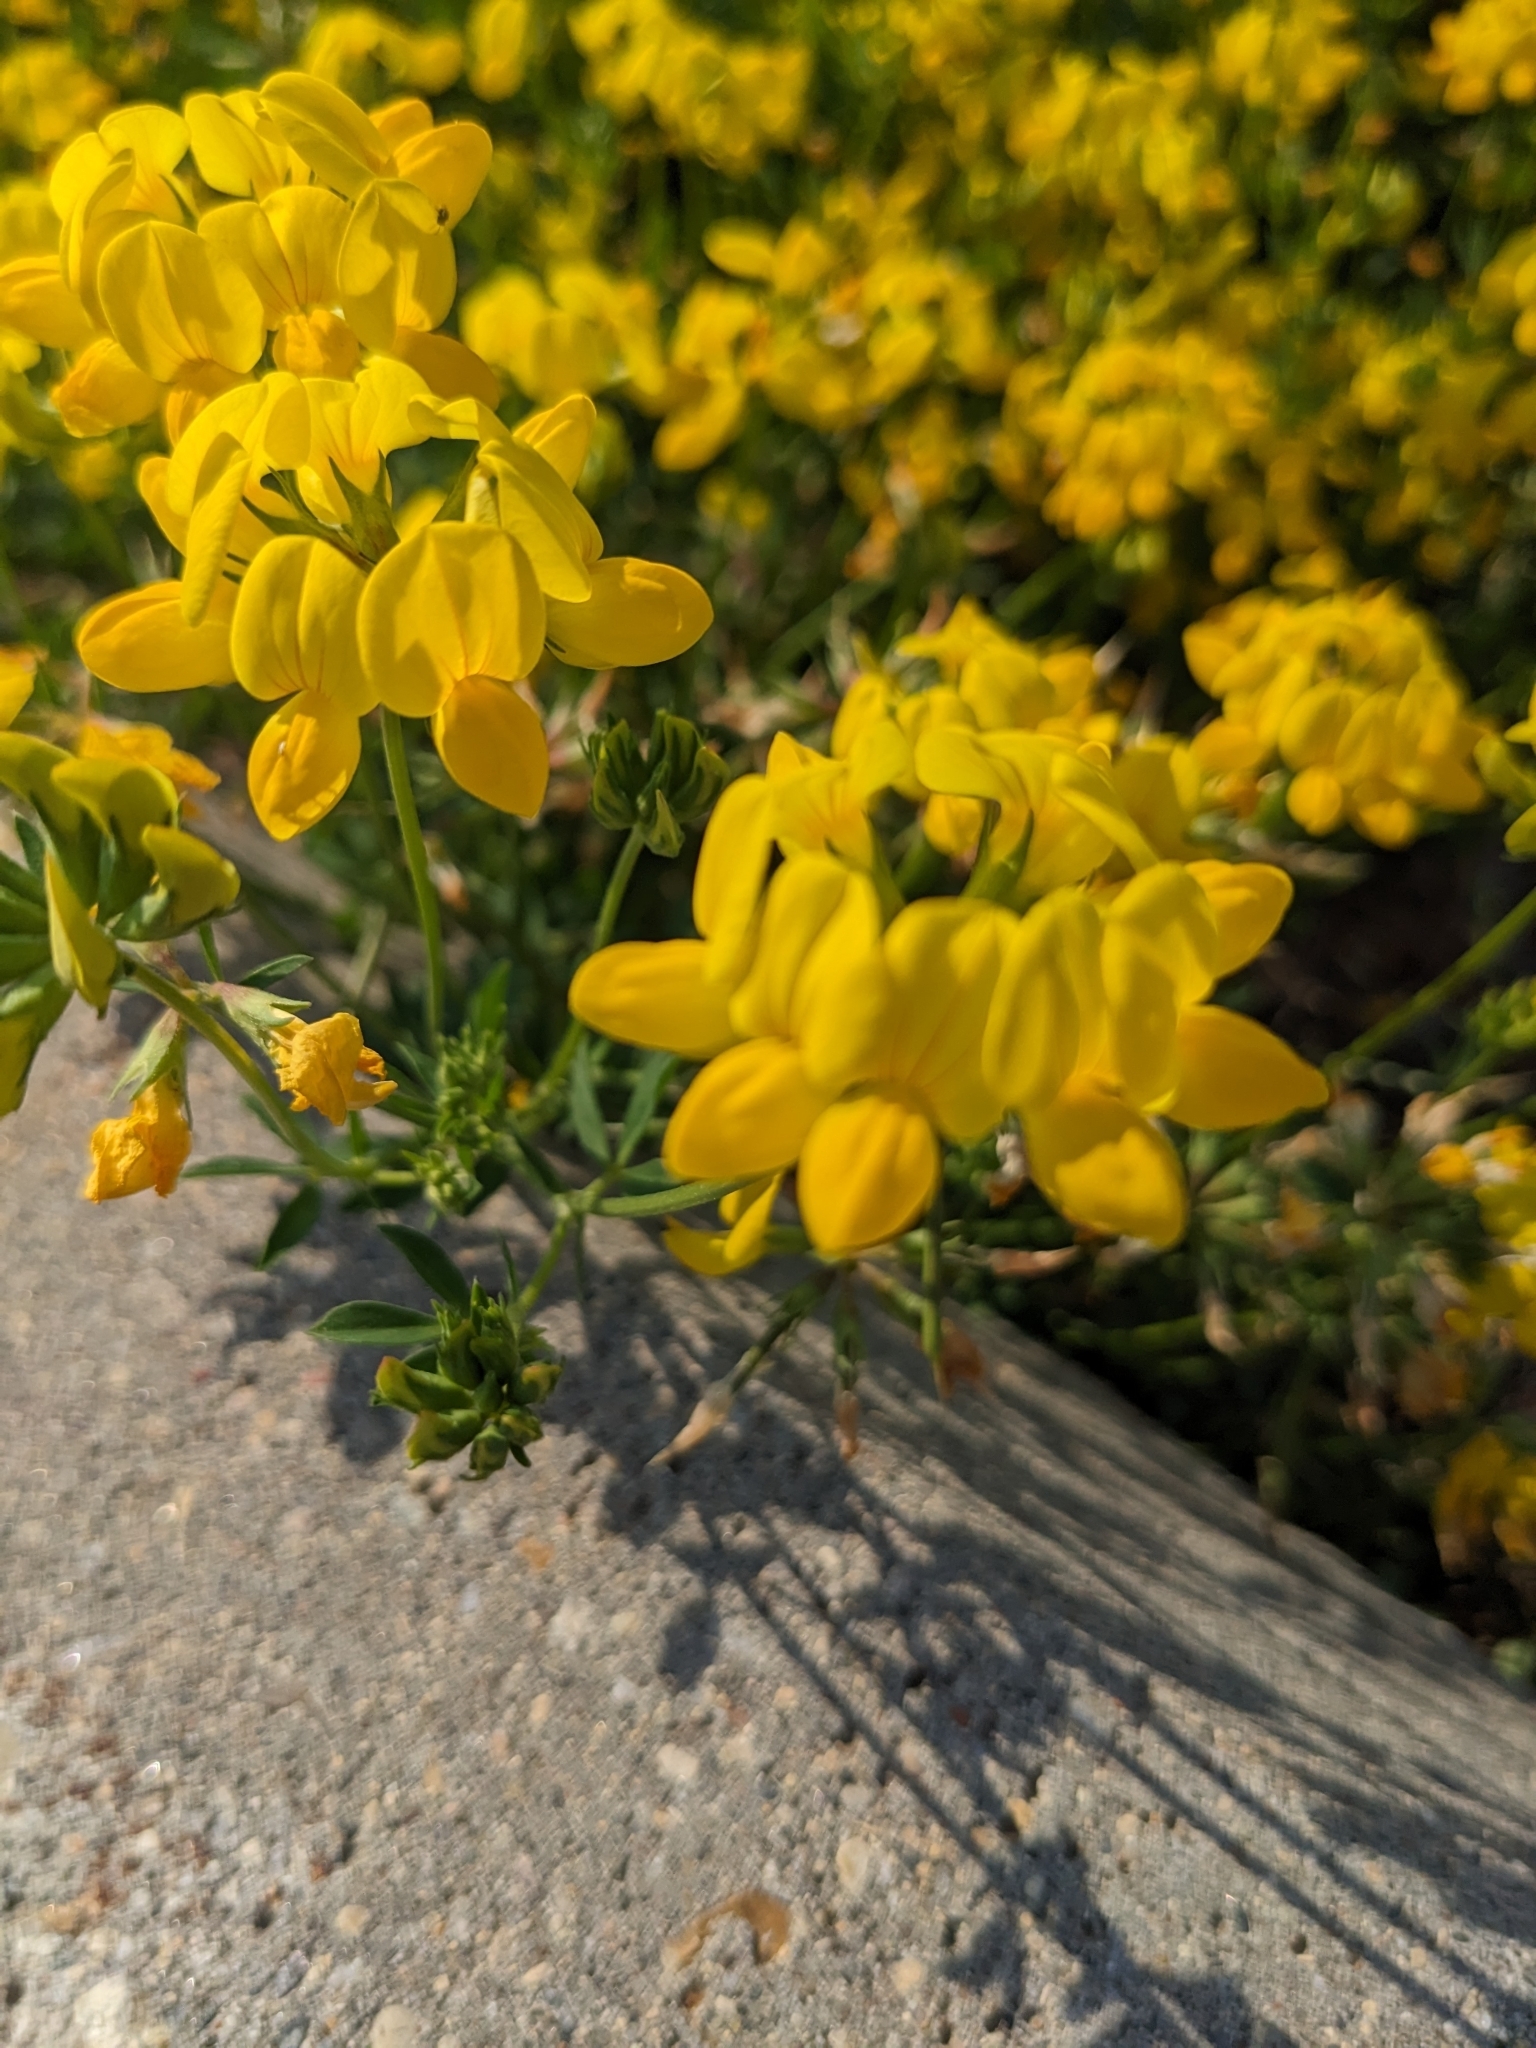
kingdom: Plantae
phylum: Tracheophyta
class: Magnoliopsida
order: Fabales
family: Fabaceae
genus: Lotus
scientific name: Lotus corniculatus
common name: Common bird's-foot-trefoil
